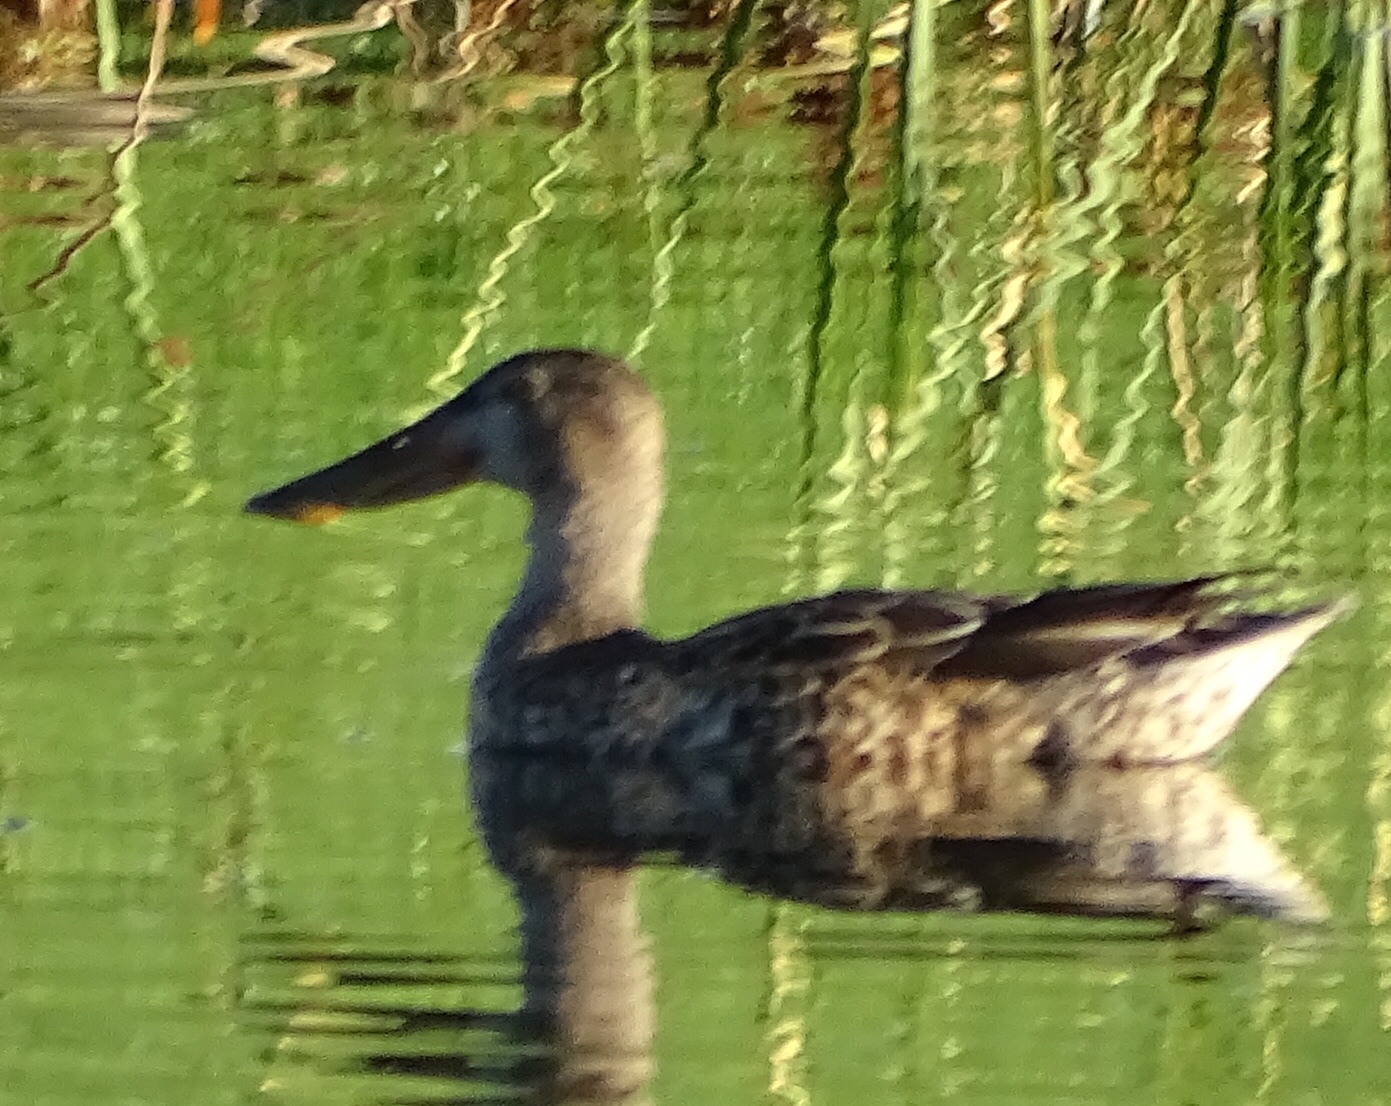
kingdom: Animalia
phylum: Chordata
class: Aves
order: Anseriformes
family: Anatidae
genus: Spatula
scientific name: Spatula clypeata
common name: Northern shoveler
